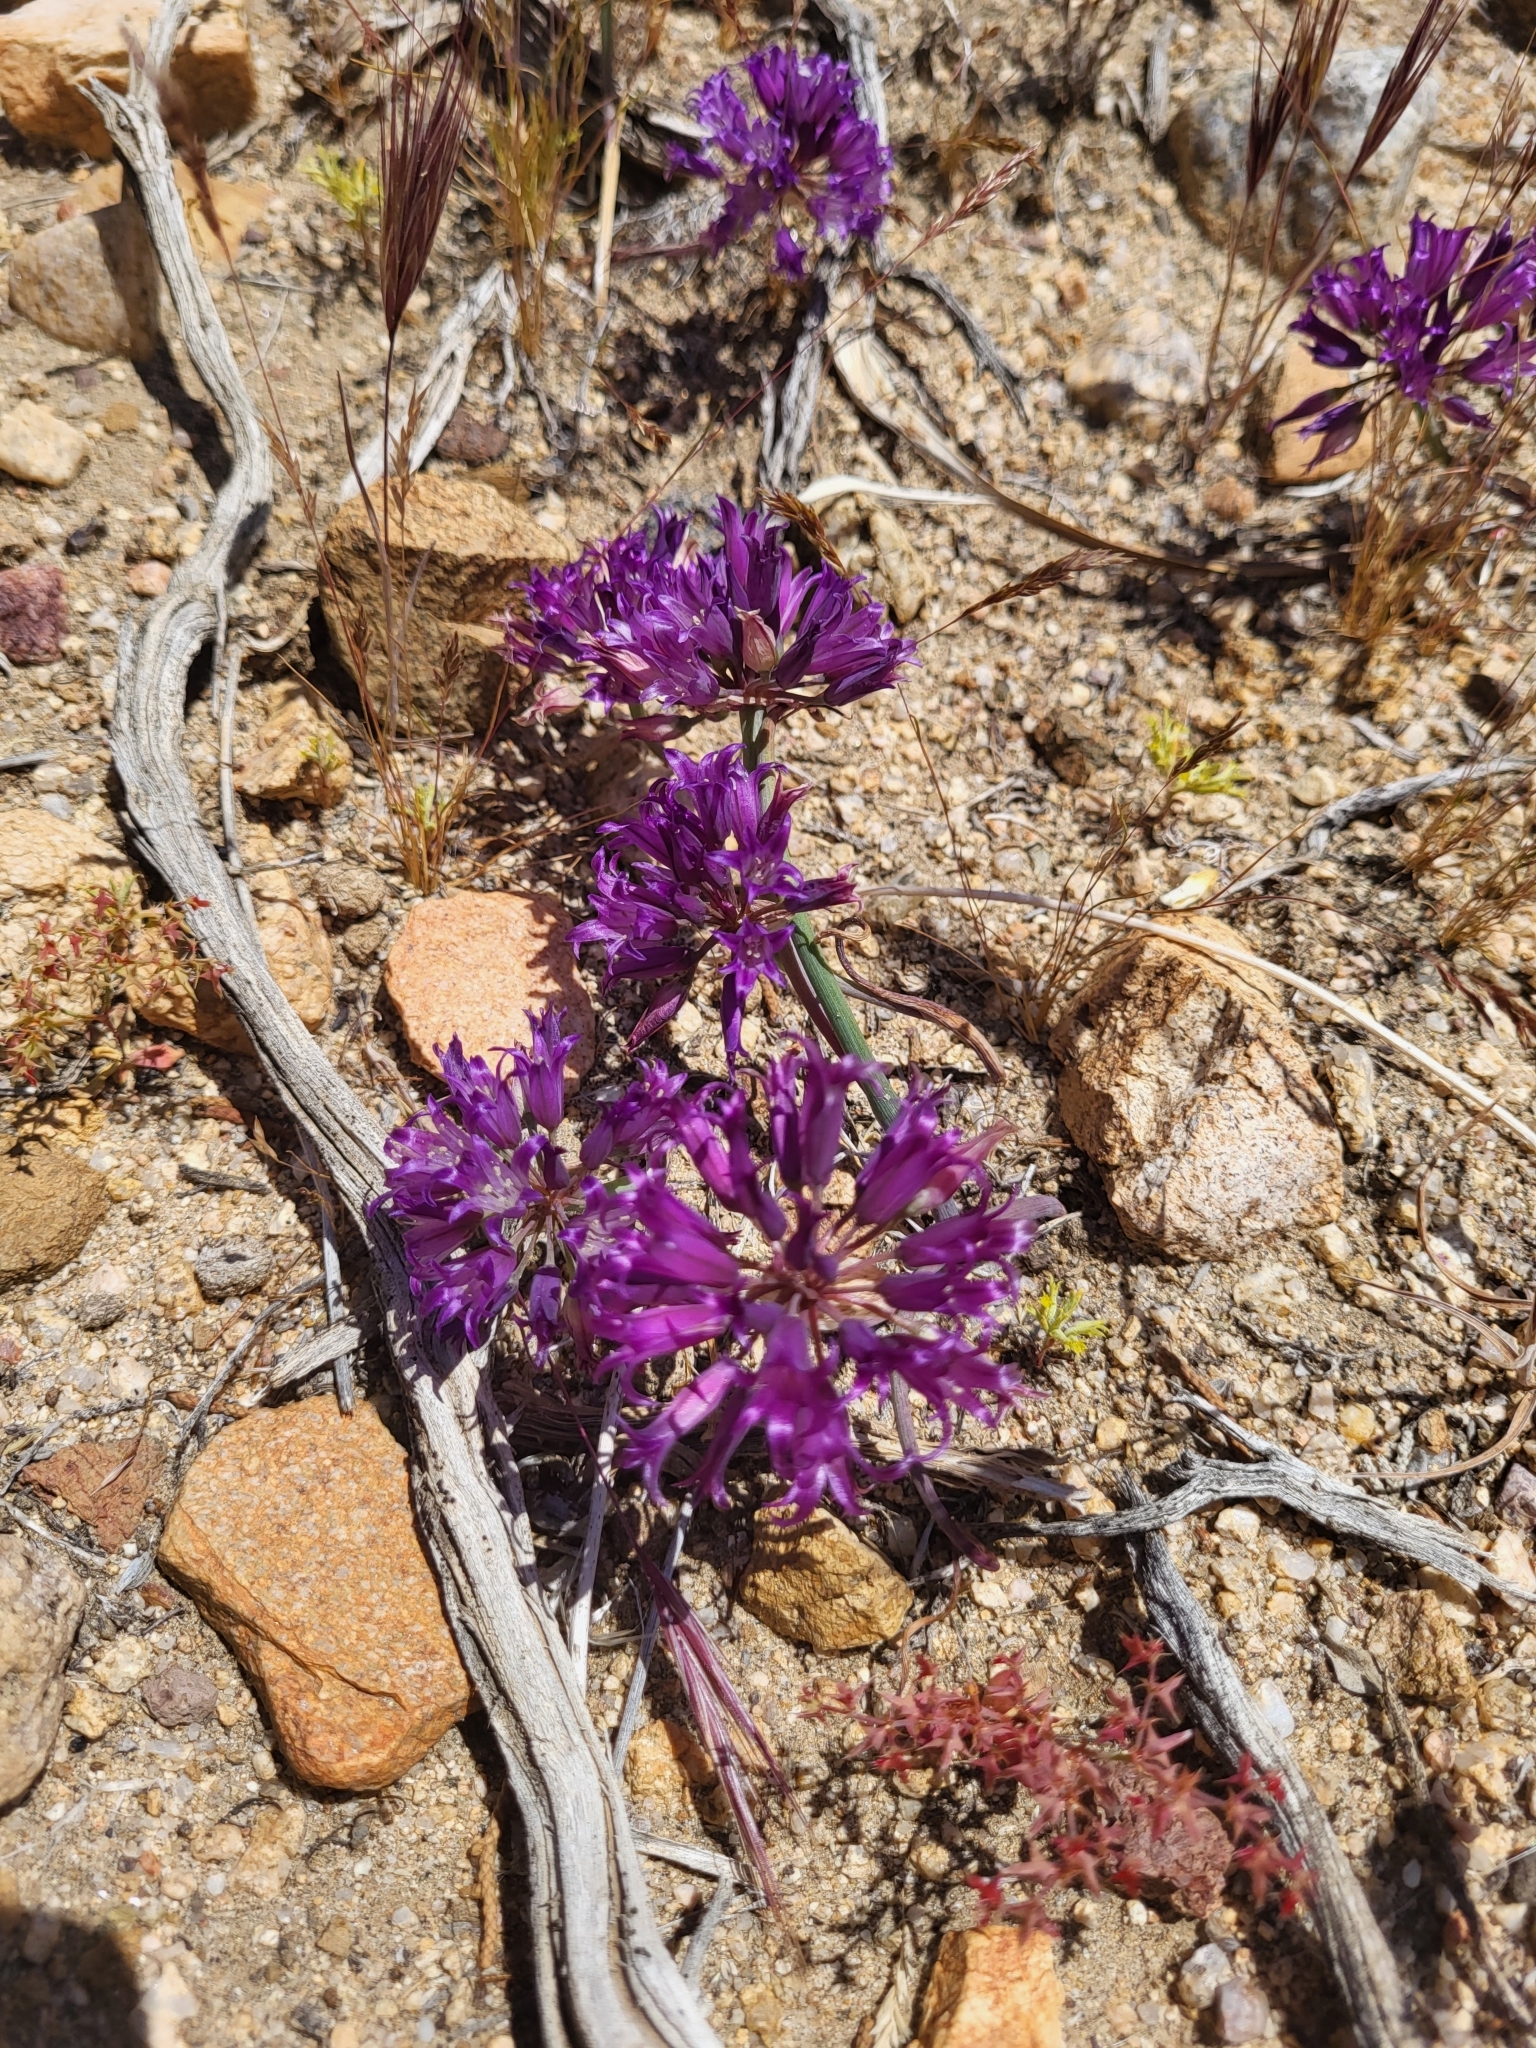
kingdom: Plantae
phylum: Tracheophyta
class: Liliopsida
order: Asparagales
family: Amaryllidaceae
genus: Allium
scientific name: Allium fimbriatum
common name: Fringed onion
